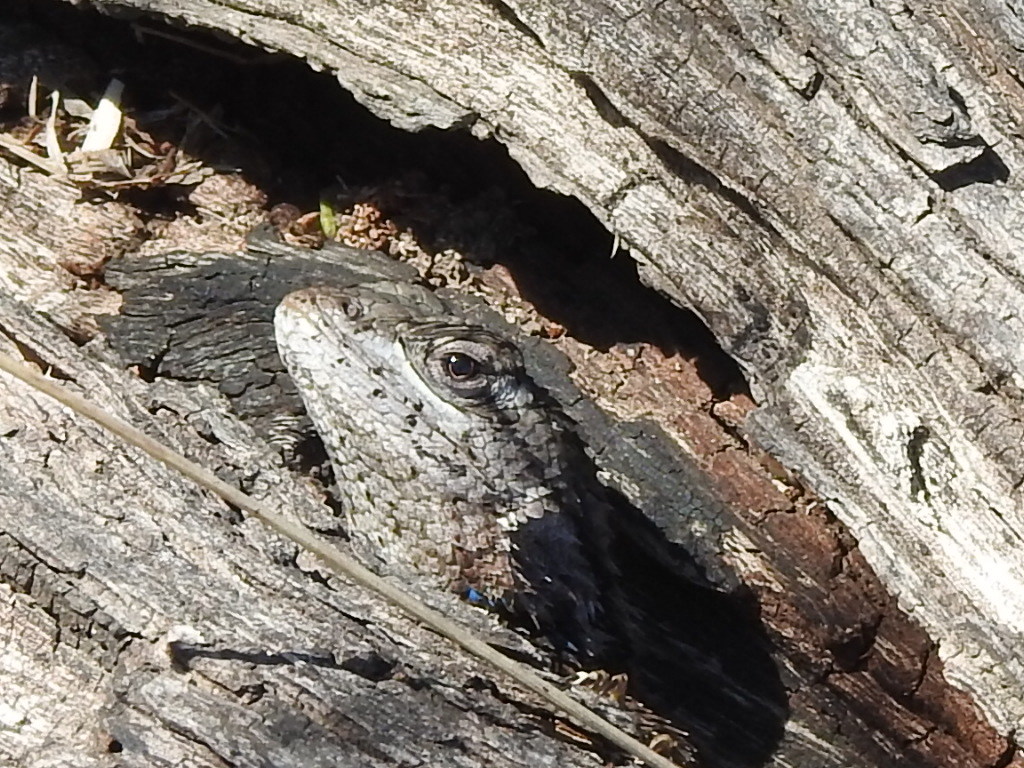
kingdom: Animalia
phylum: Chordata
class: Squamata
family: Phrynosomatidae
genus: Sceloporus
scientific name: Sceloporus olivaceus
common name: Texas spiny lizard
